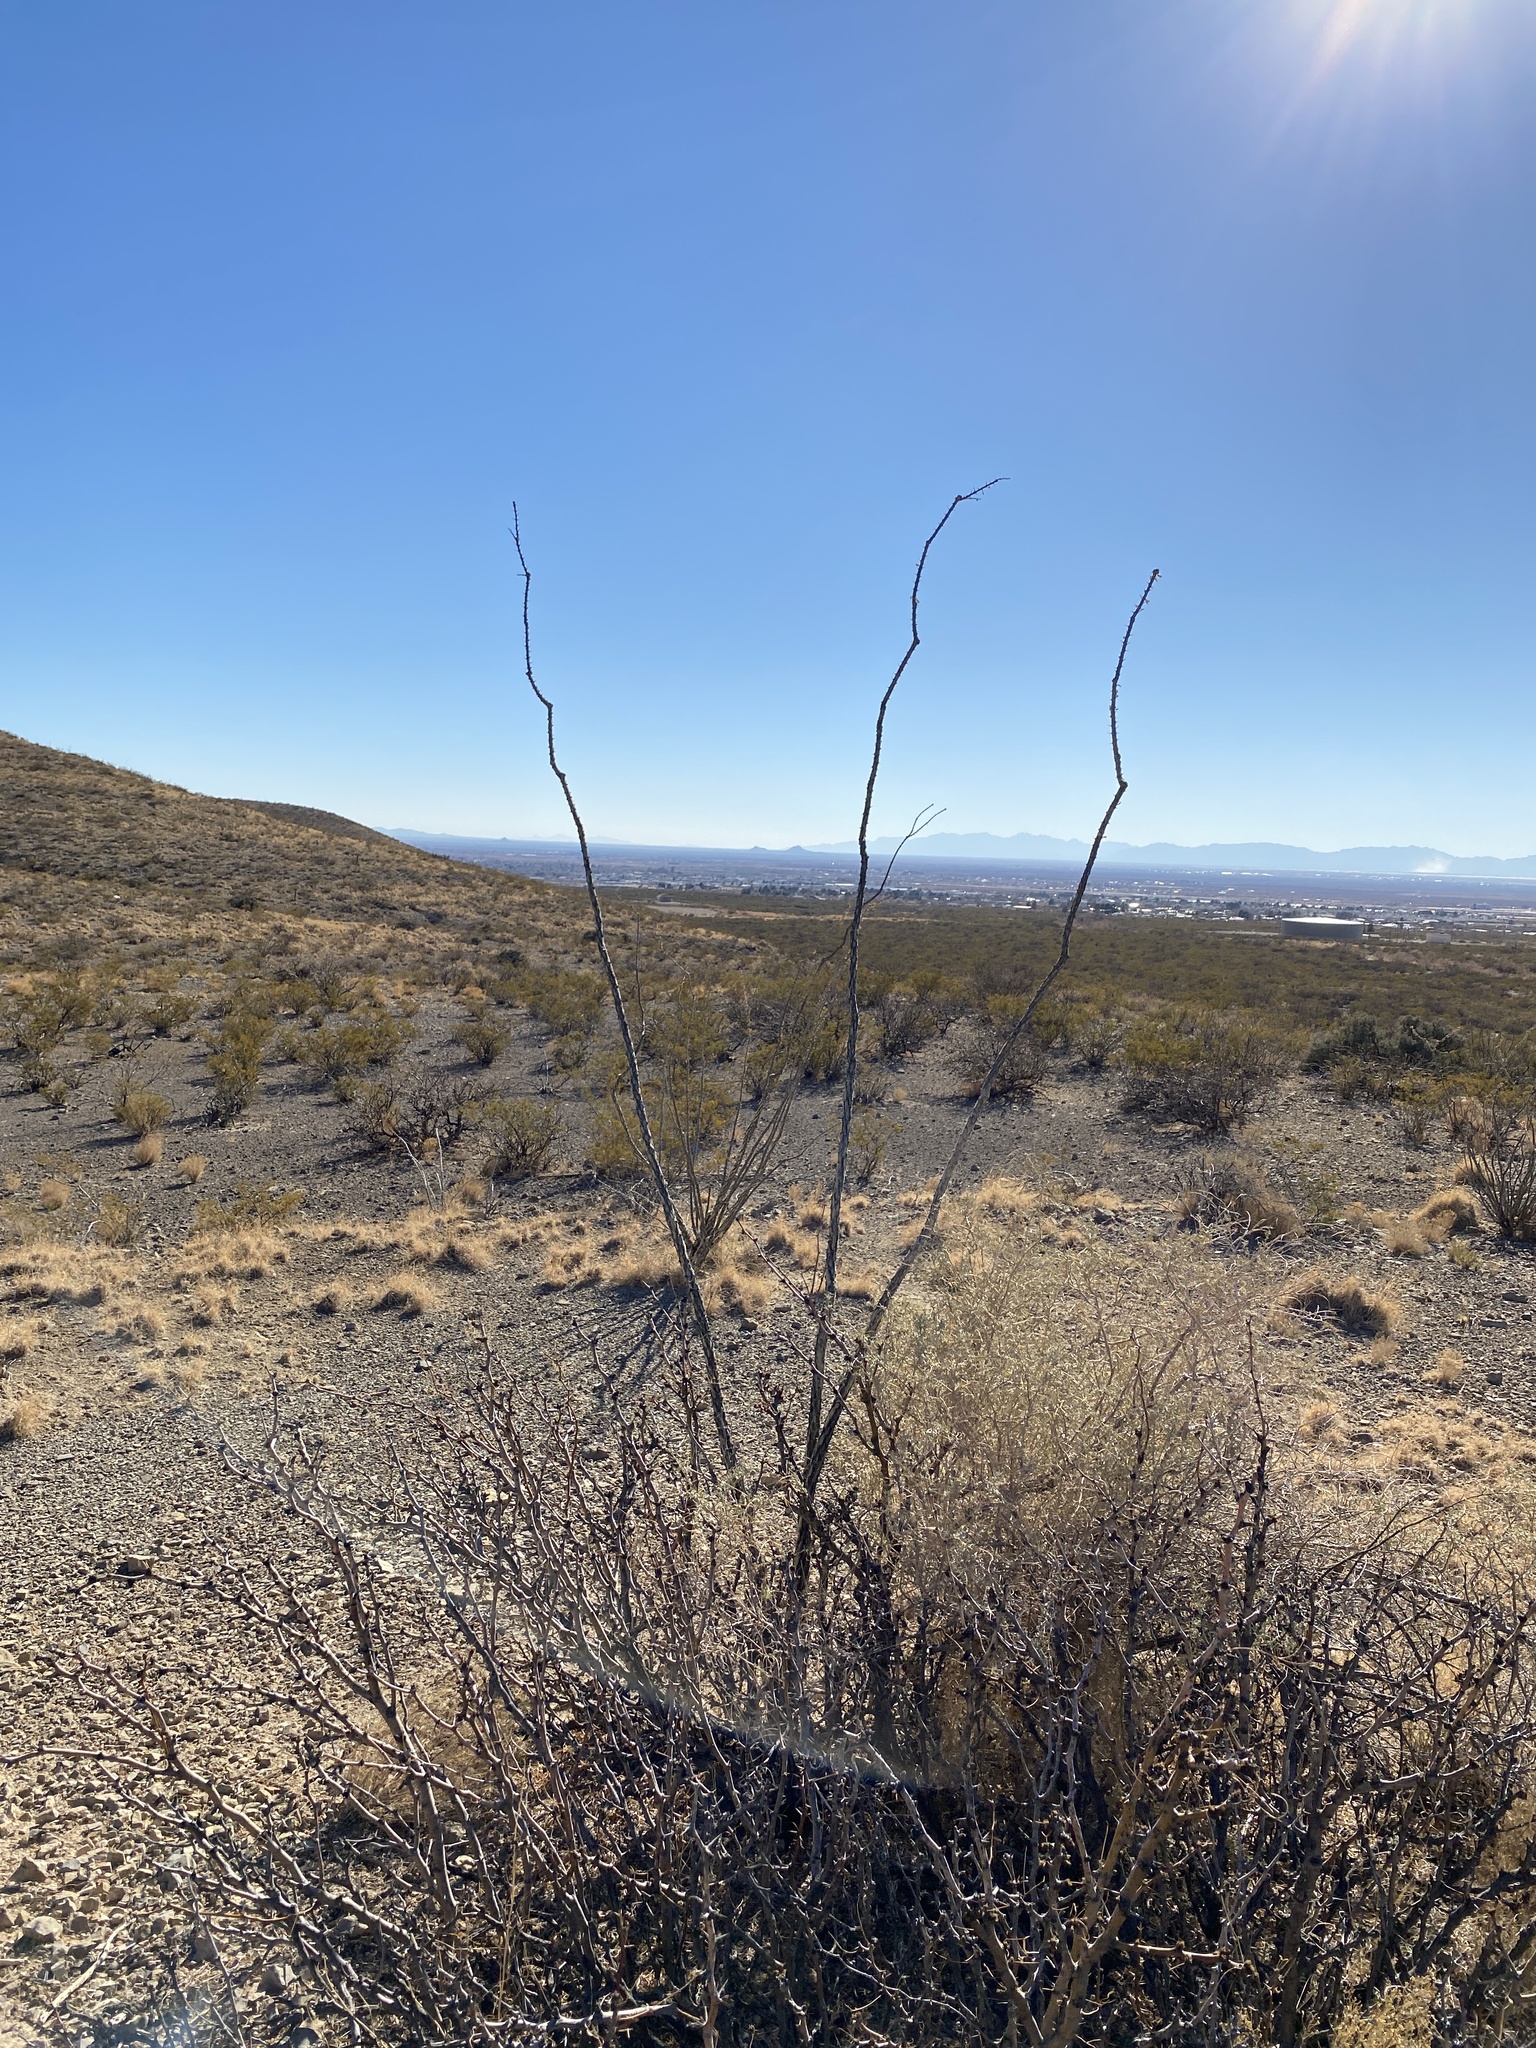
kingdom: Plantae
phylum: Tracheophyta
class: Magnoliopsida
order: Ericales
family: Fouquieriaceae
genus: Fouquieria
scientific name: Fouquieria splendens
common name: Vine-cactus
